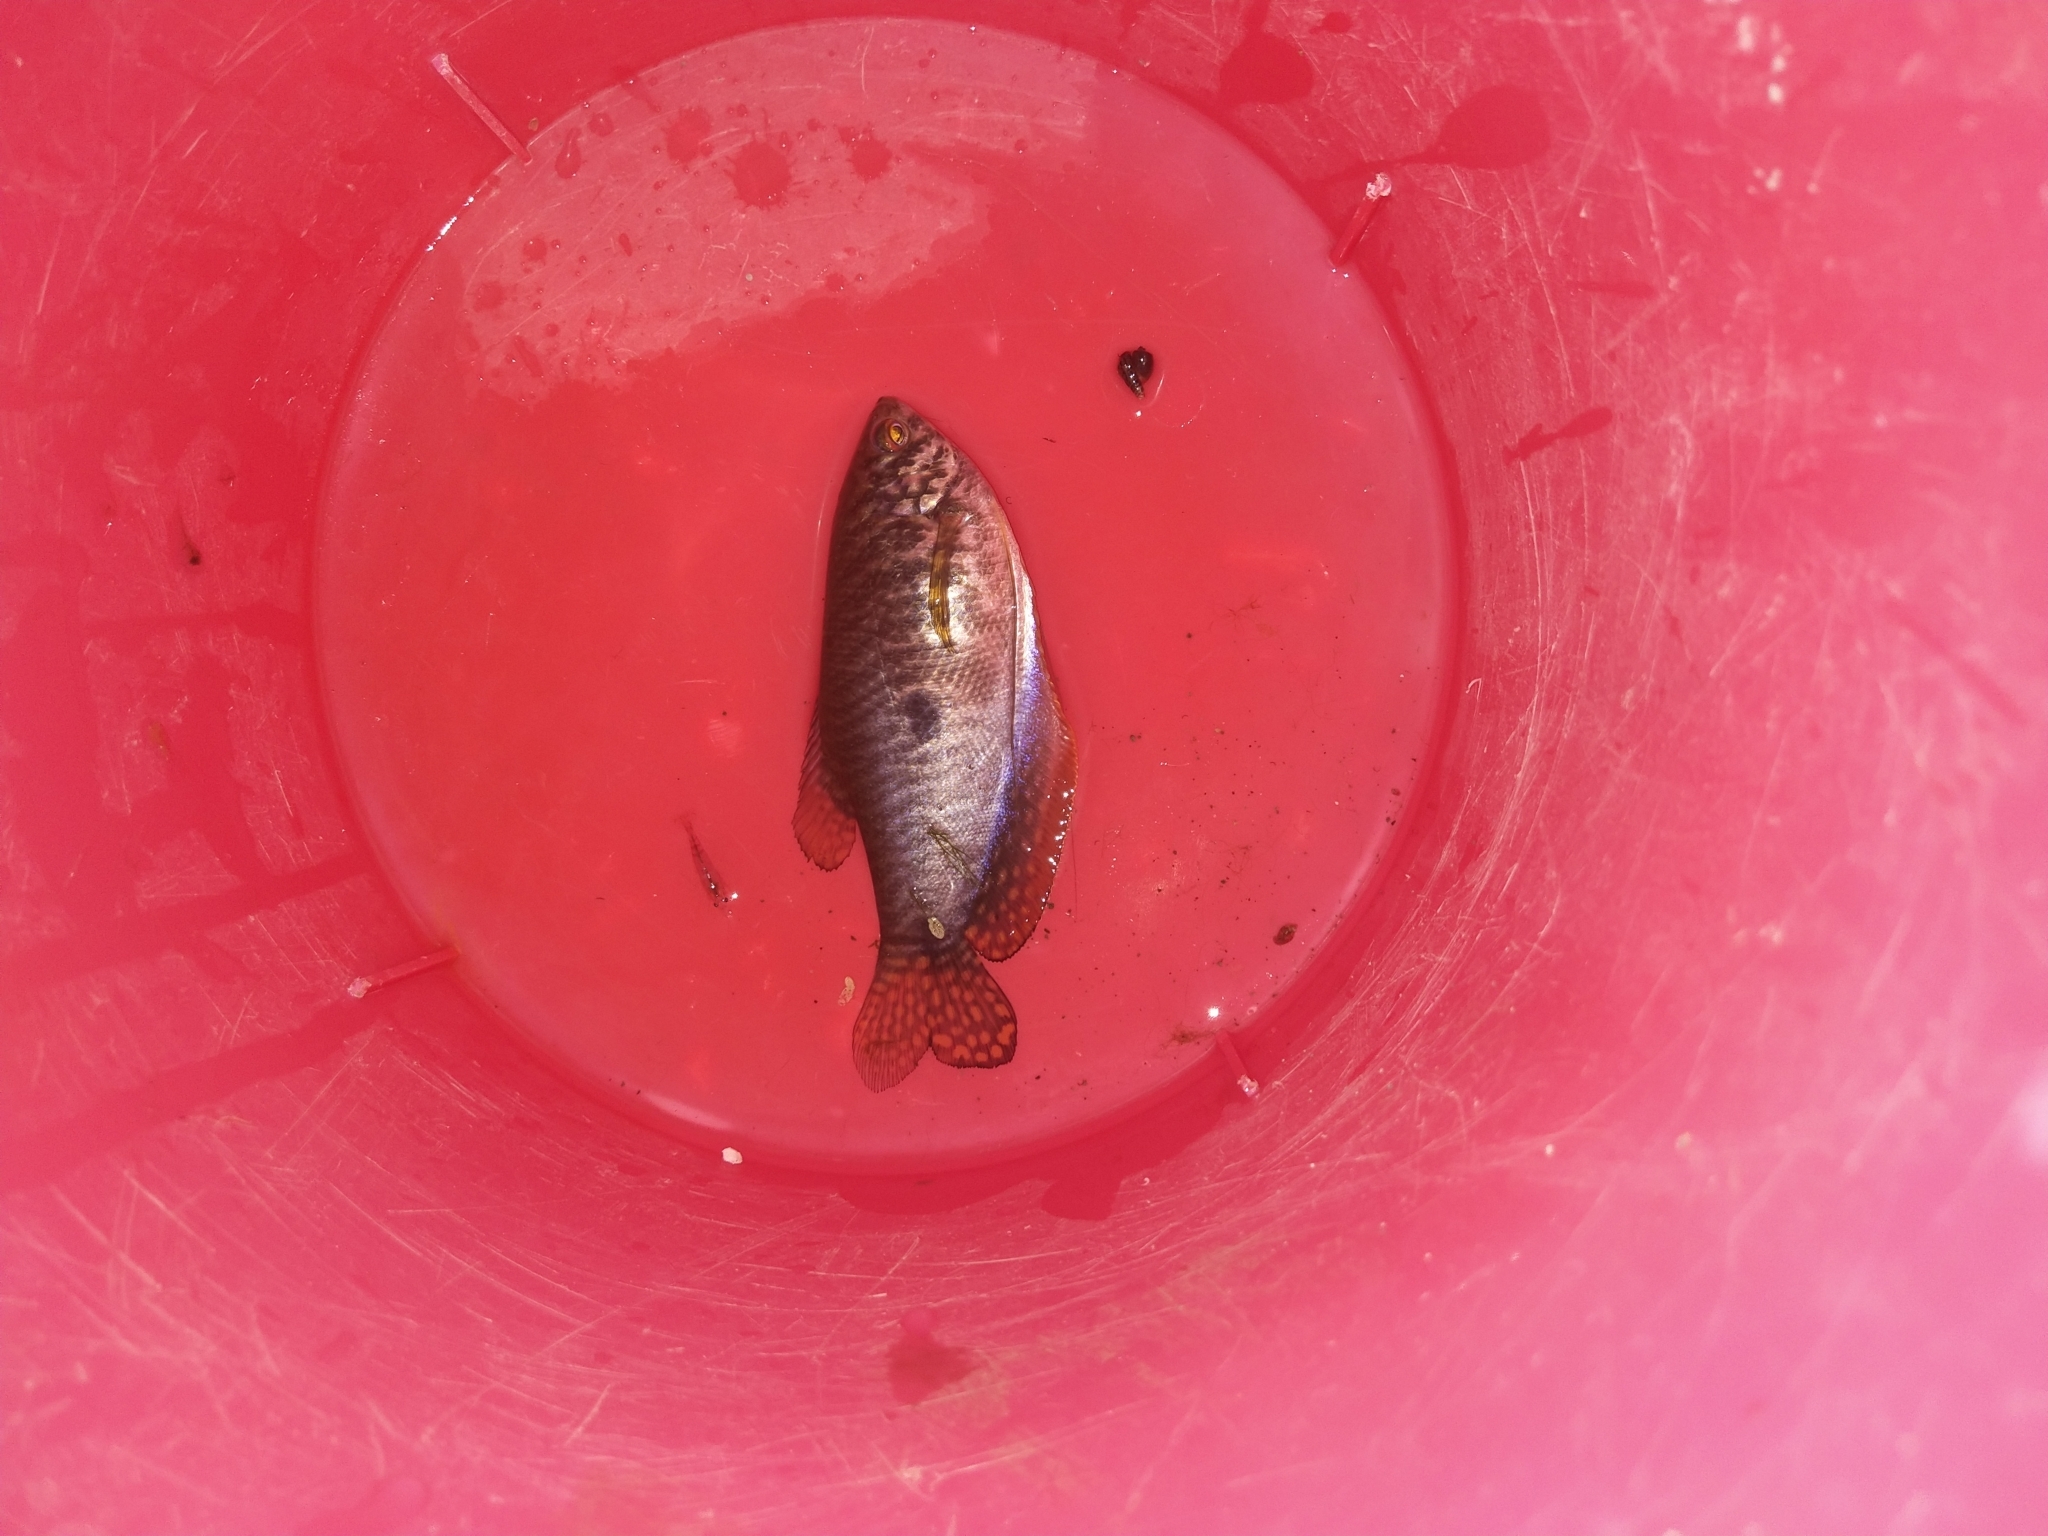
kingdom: Animalia
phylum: Chordata
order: Perciformes
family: Osphronemidae
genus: Trichopodus
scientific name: Trichopodus trichopterus
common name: Blue gourami
